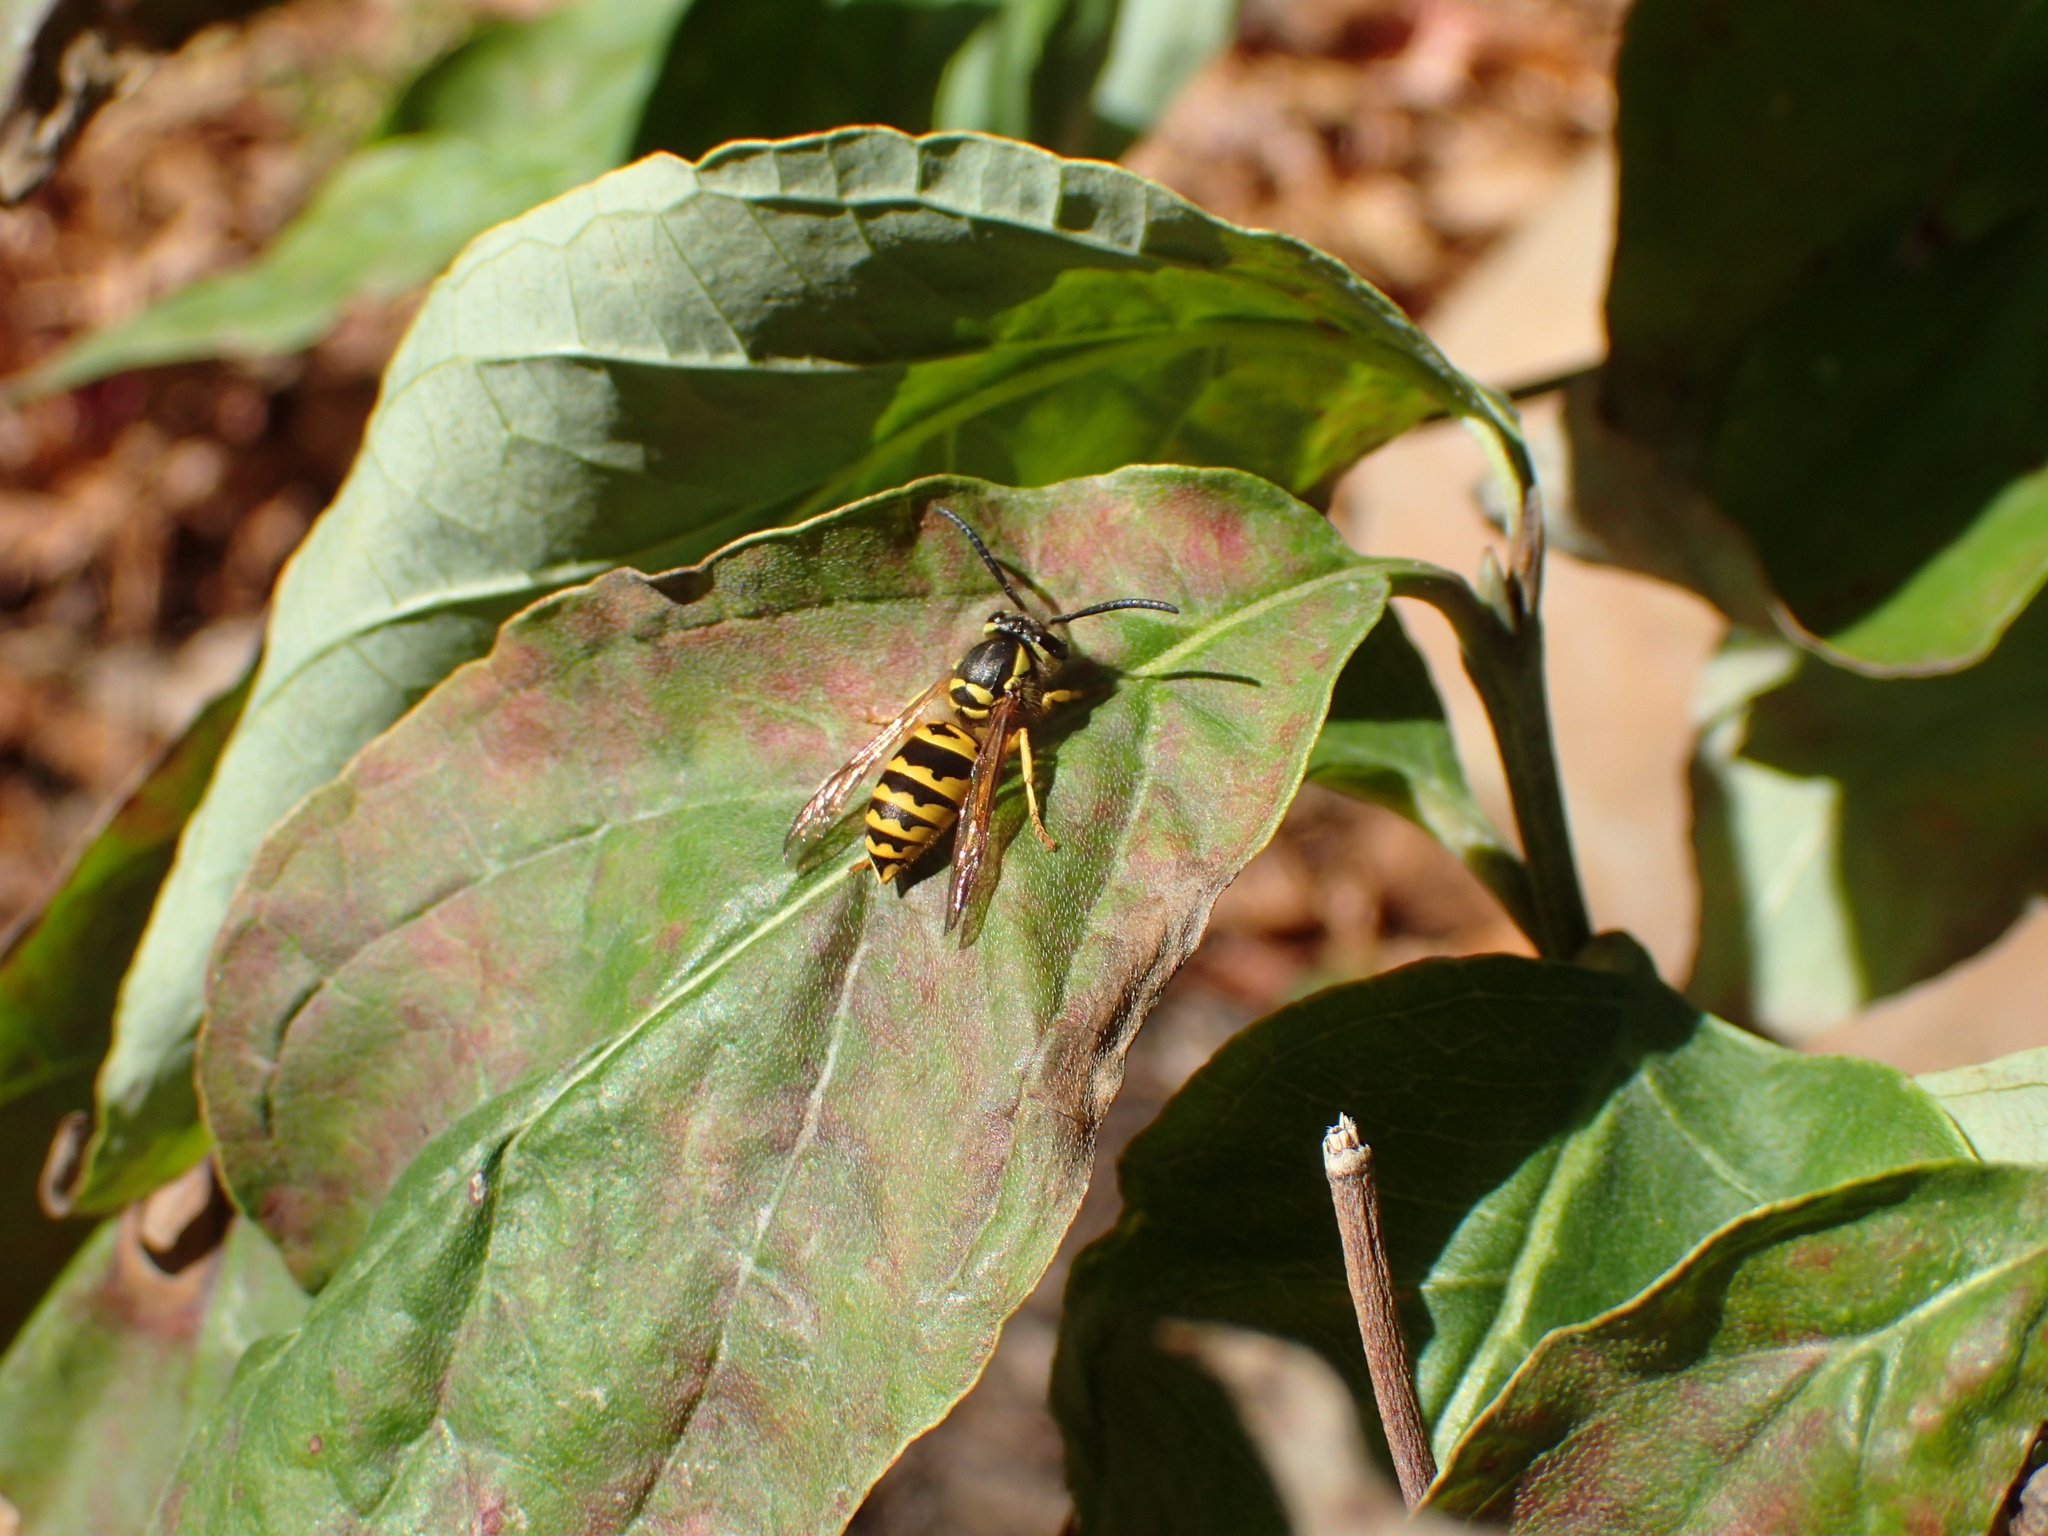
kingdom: Animalia
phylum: Arthropoda
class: Insecta
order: Hymenoptera
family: Vespidae
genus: Vespula
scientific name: Vespula maculifrons
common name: Eastern yellowjacket
